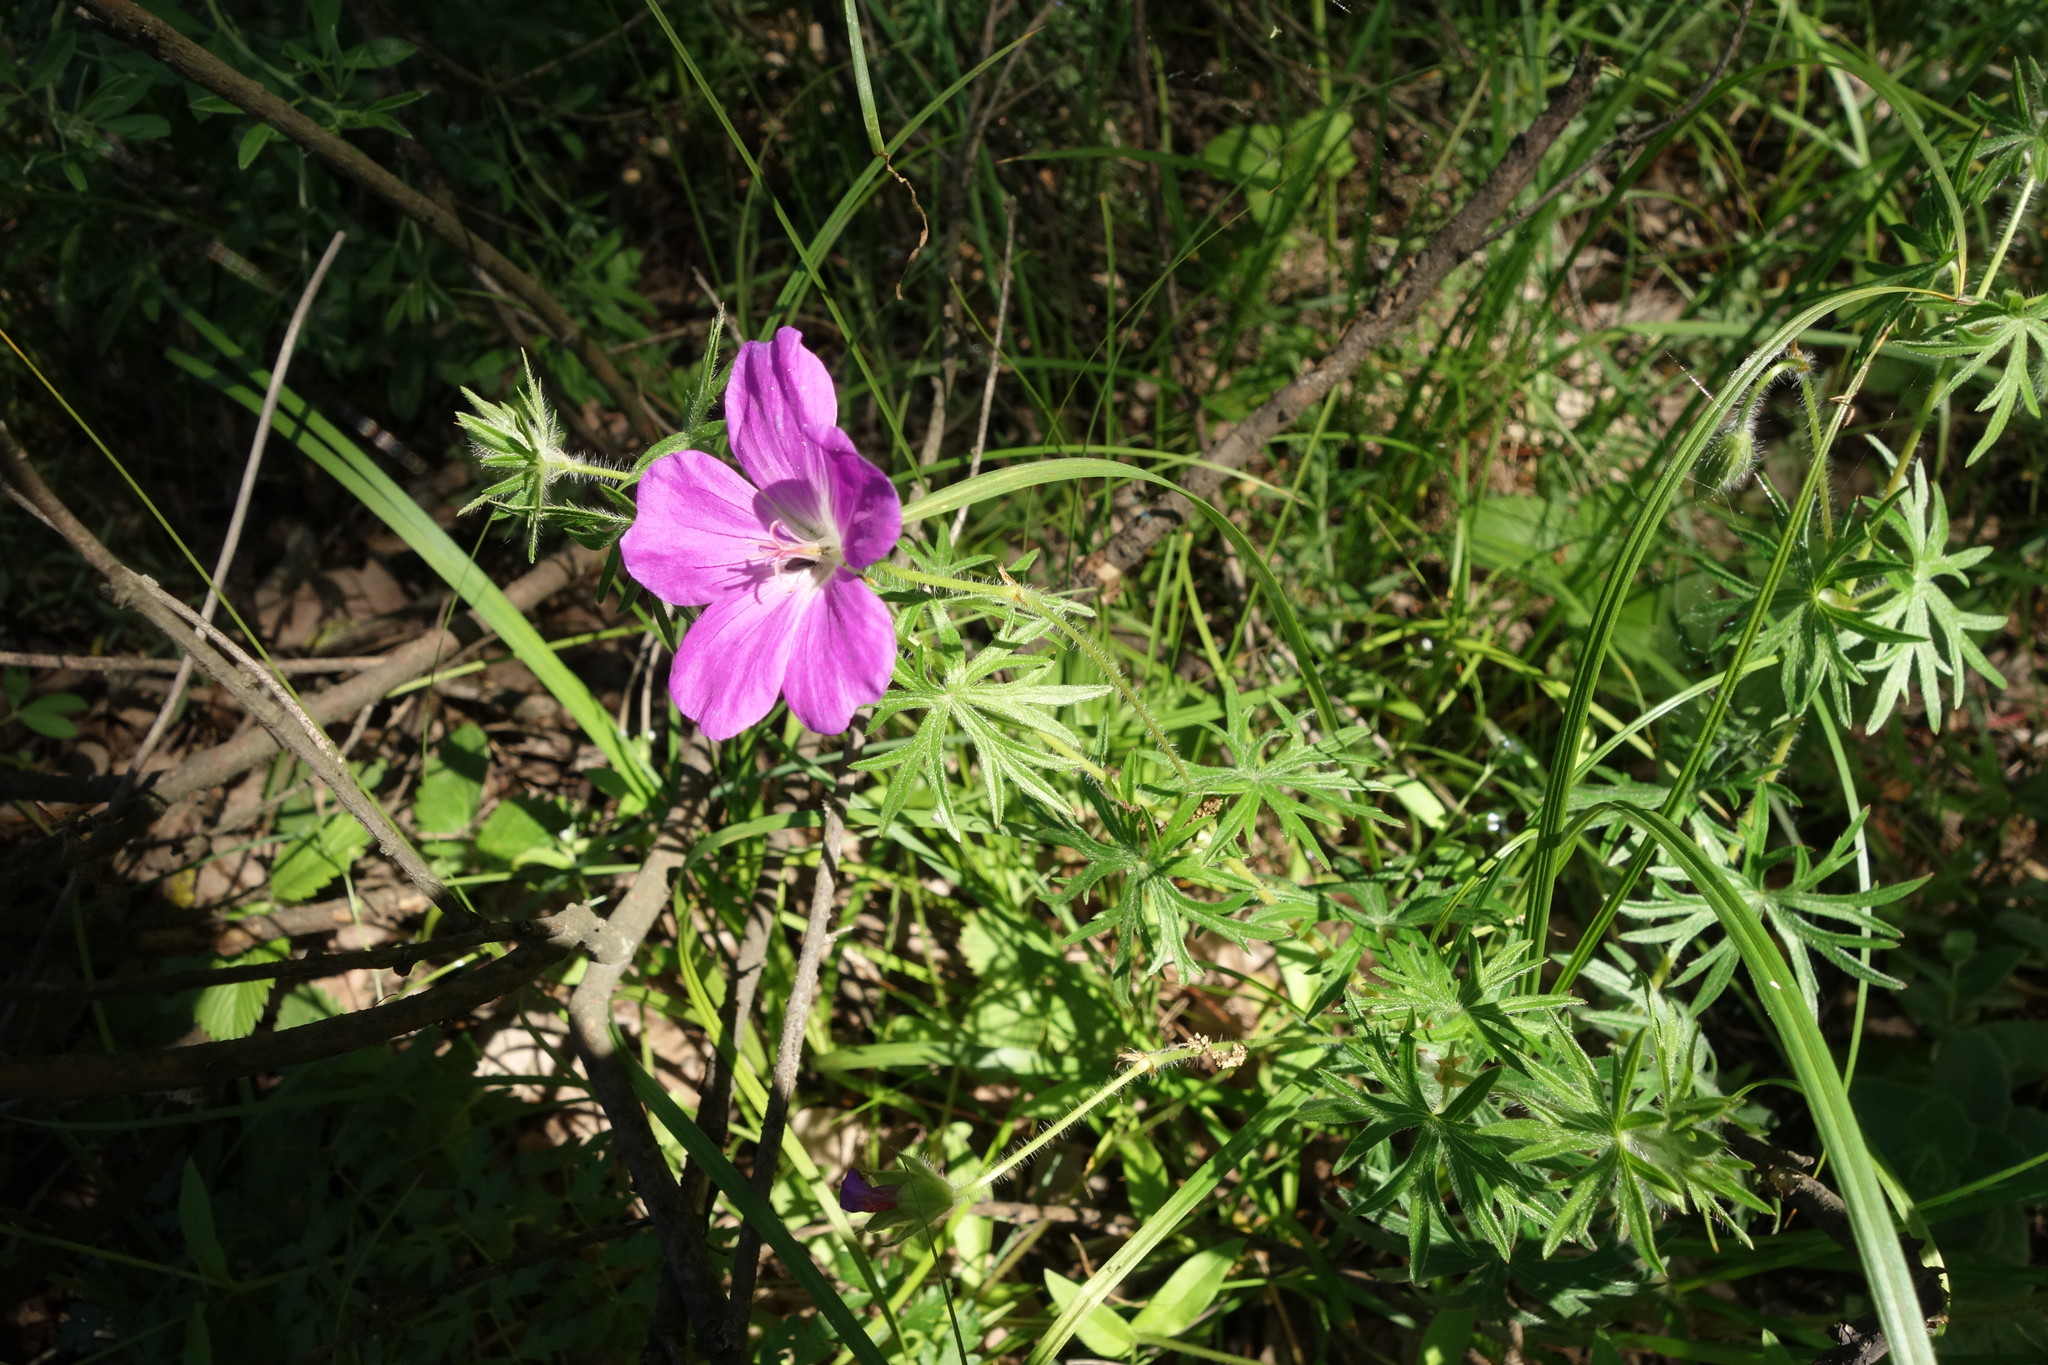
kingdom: Plantae
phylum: Tracheophyta
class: Magnoliopsida
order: Geraniales
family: Geraniaceae
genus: Geranium
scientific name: Geranium sanguineum
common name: Bloody crane's-bill
